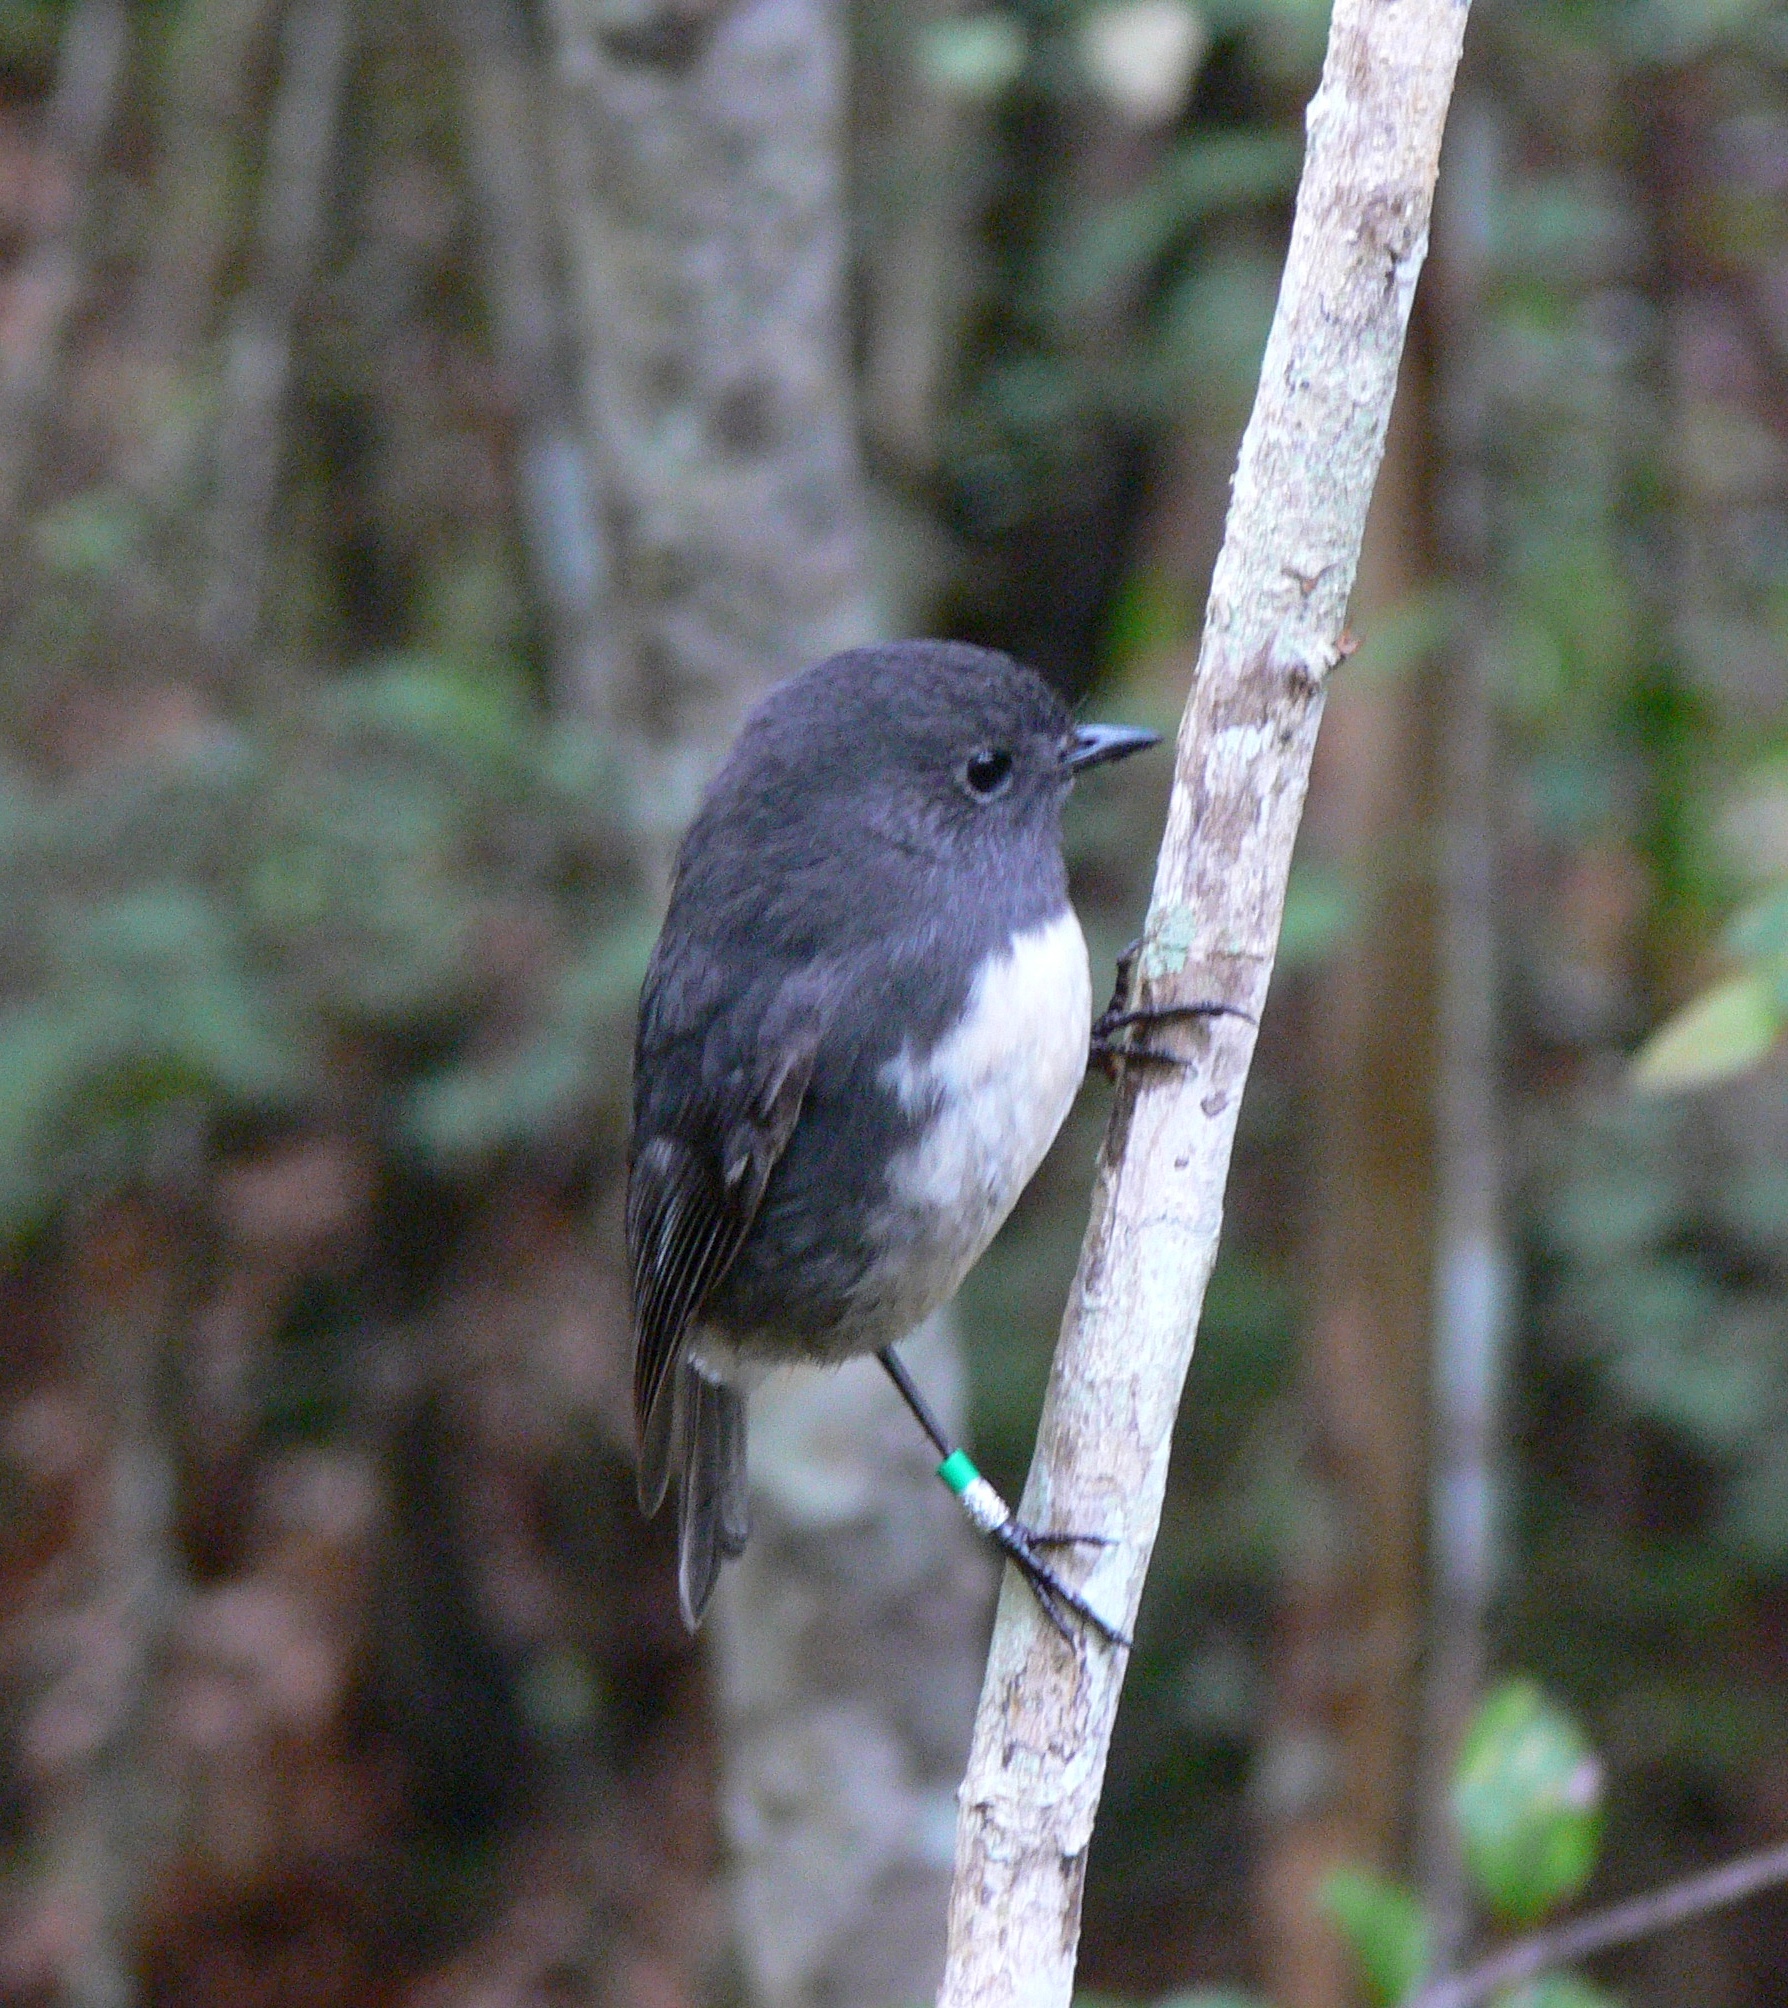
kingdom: Animalia
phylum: Chordata
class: Aves
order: Passeriformes
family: Petroicidae
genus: Petroica
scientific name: Petroica australis
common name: New zealand robin
